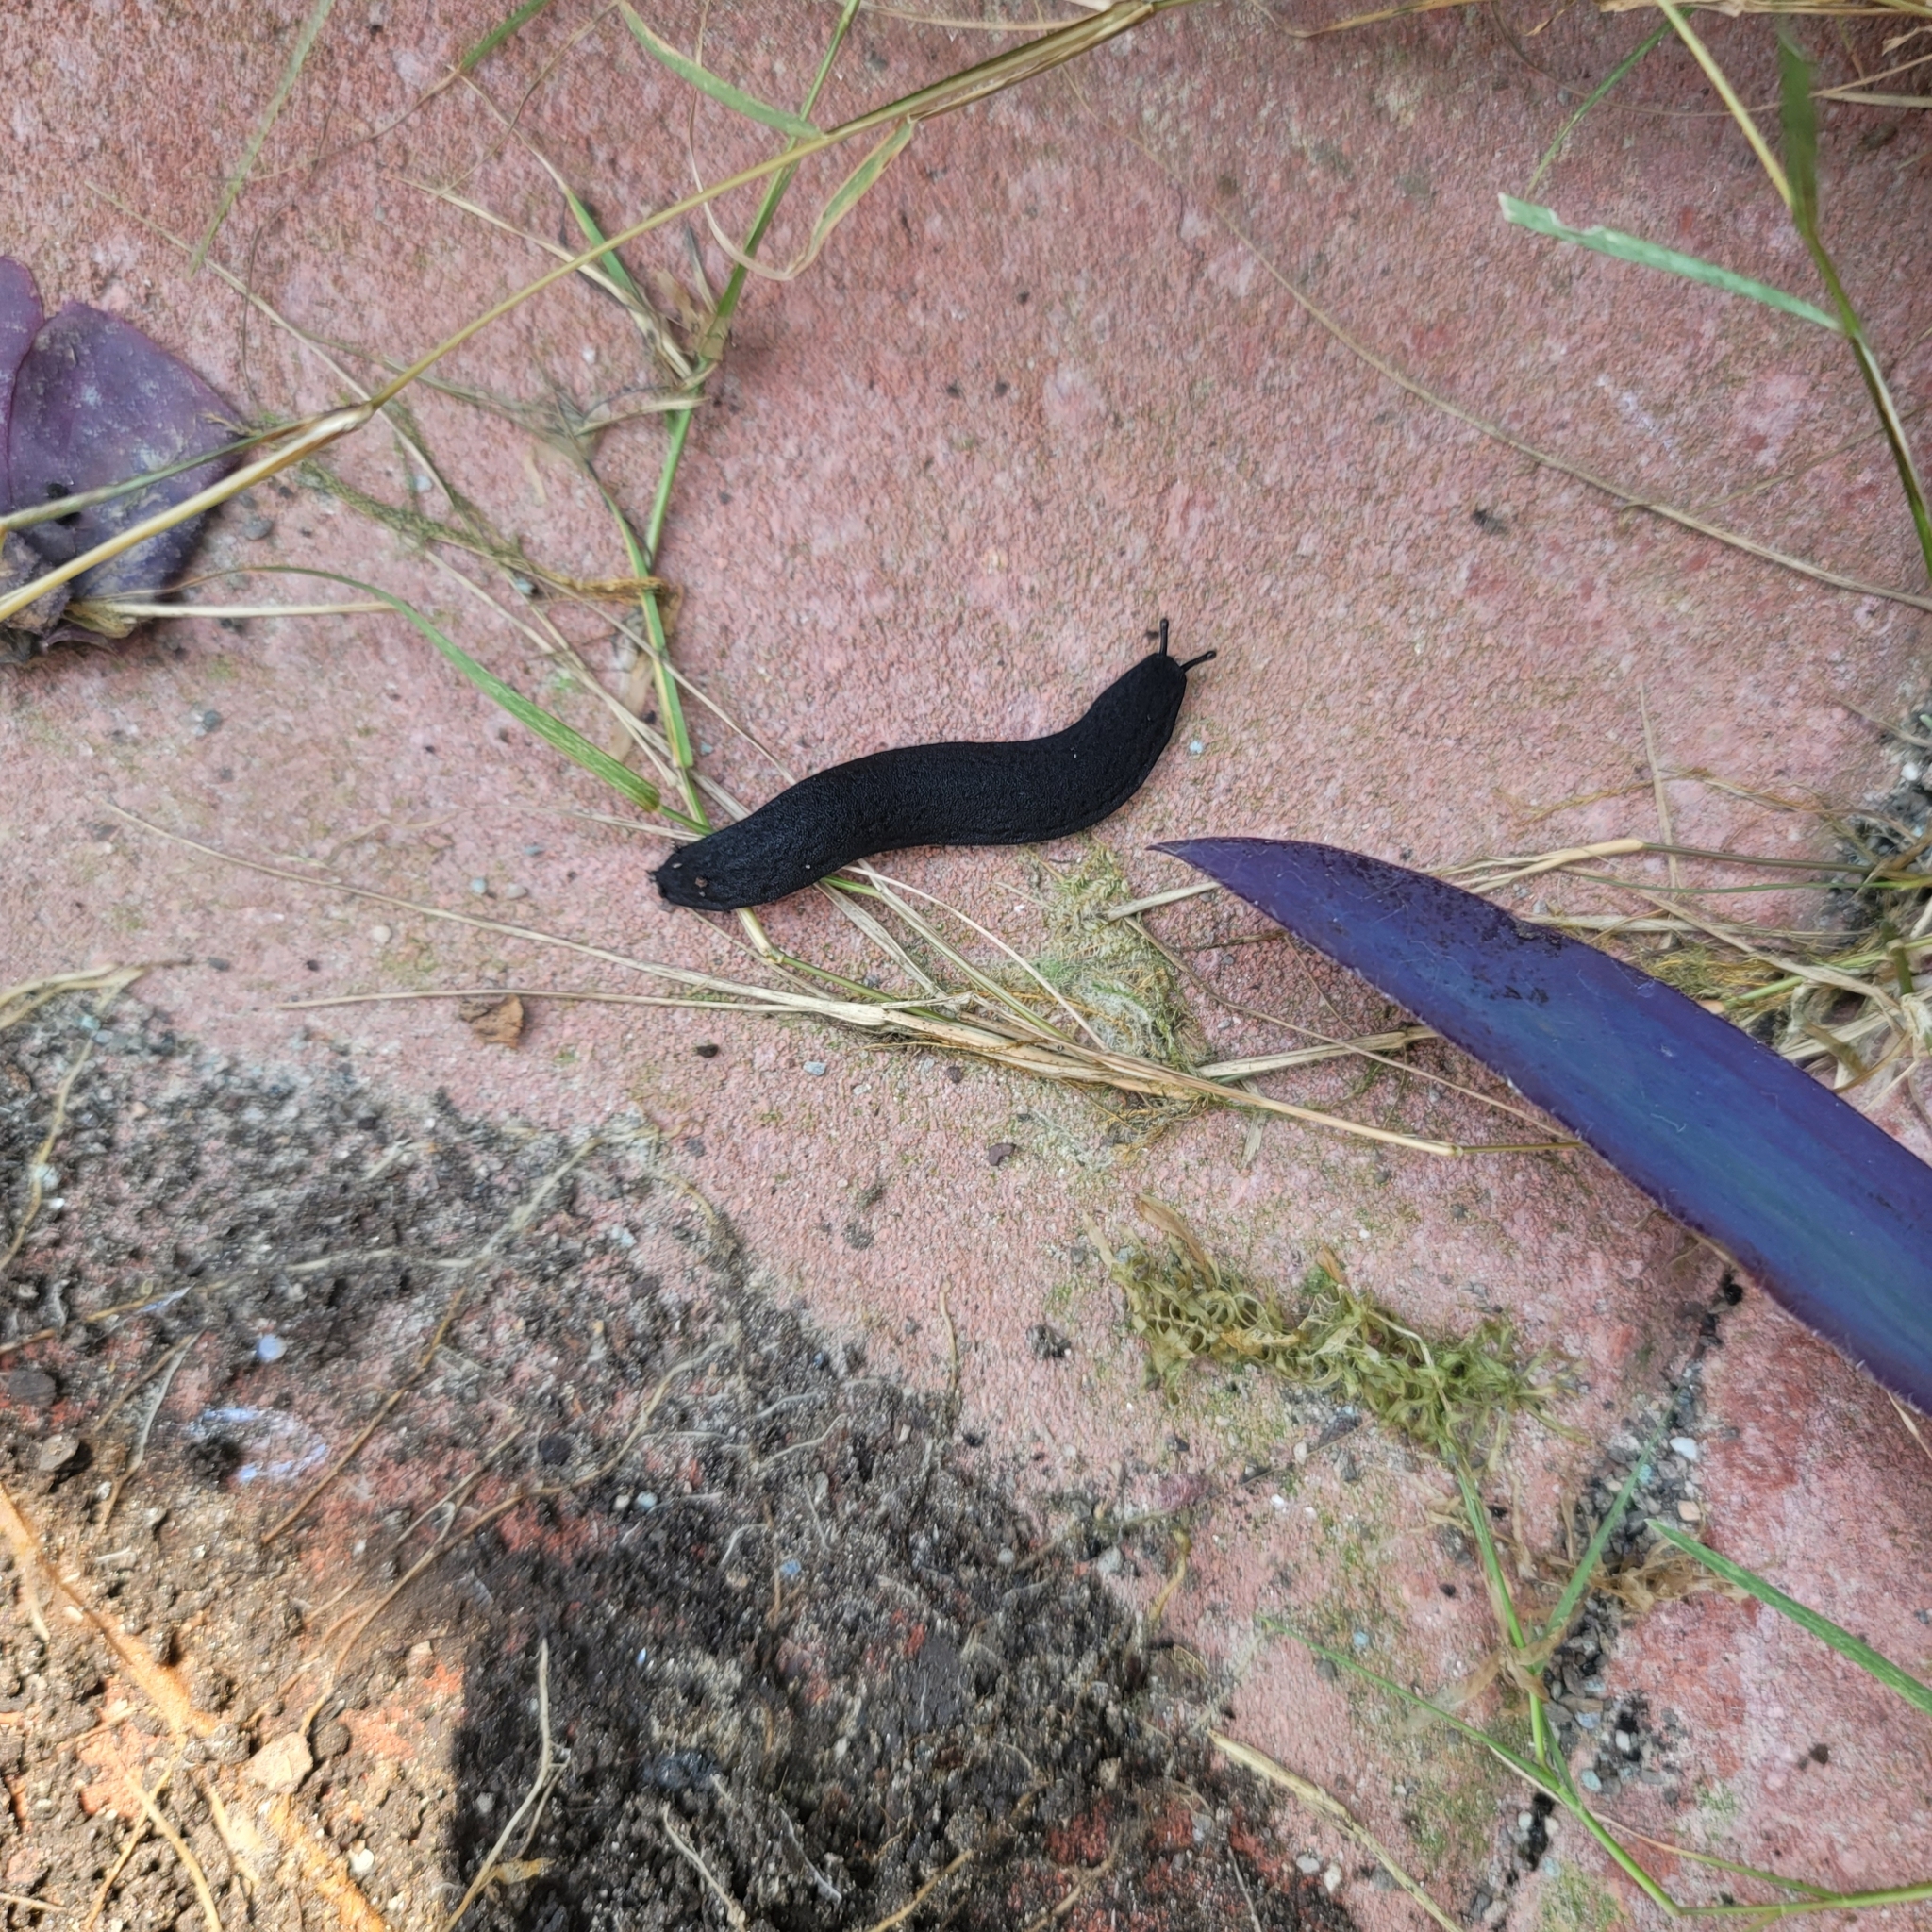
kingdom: Animalia
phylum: Mollusca
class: Gastropoda
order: Systellommatophora
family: Veronicellidae
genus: Belocaulus
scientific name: Belocaulus angustipes
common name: Black velvet leatherleaf slug
